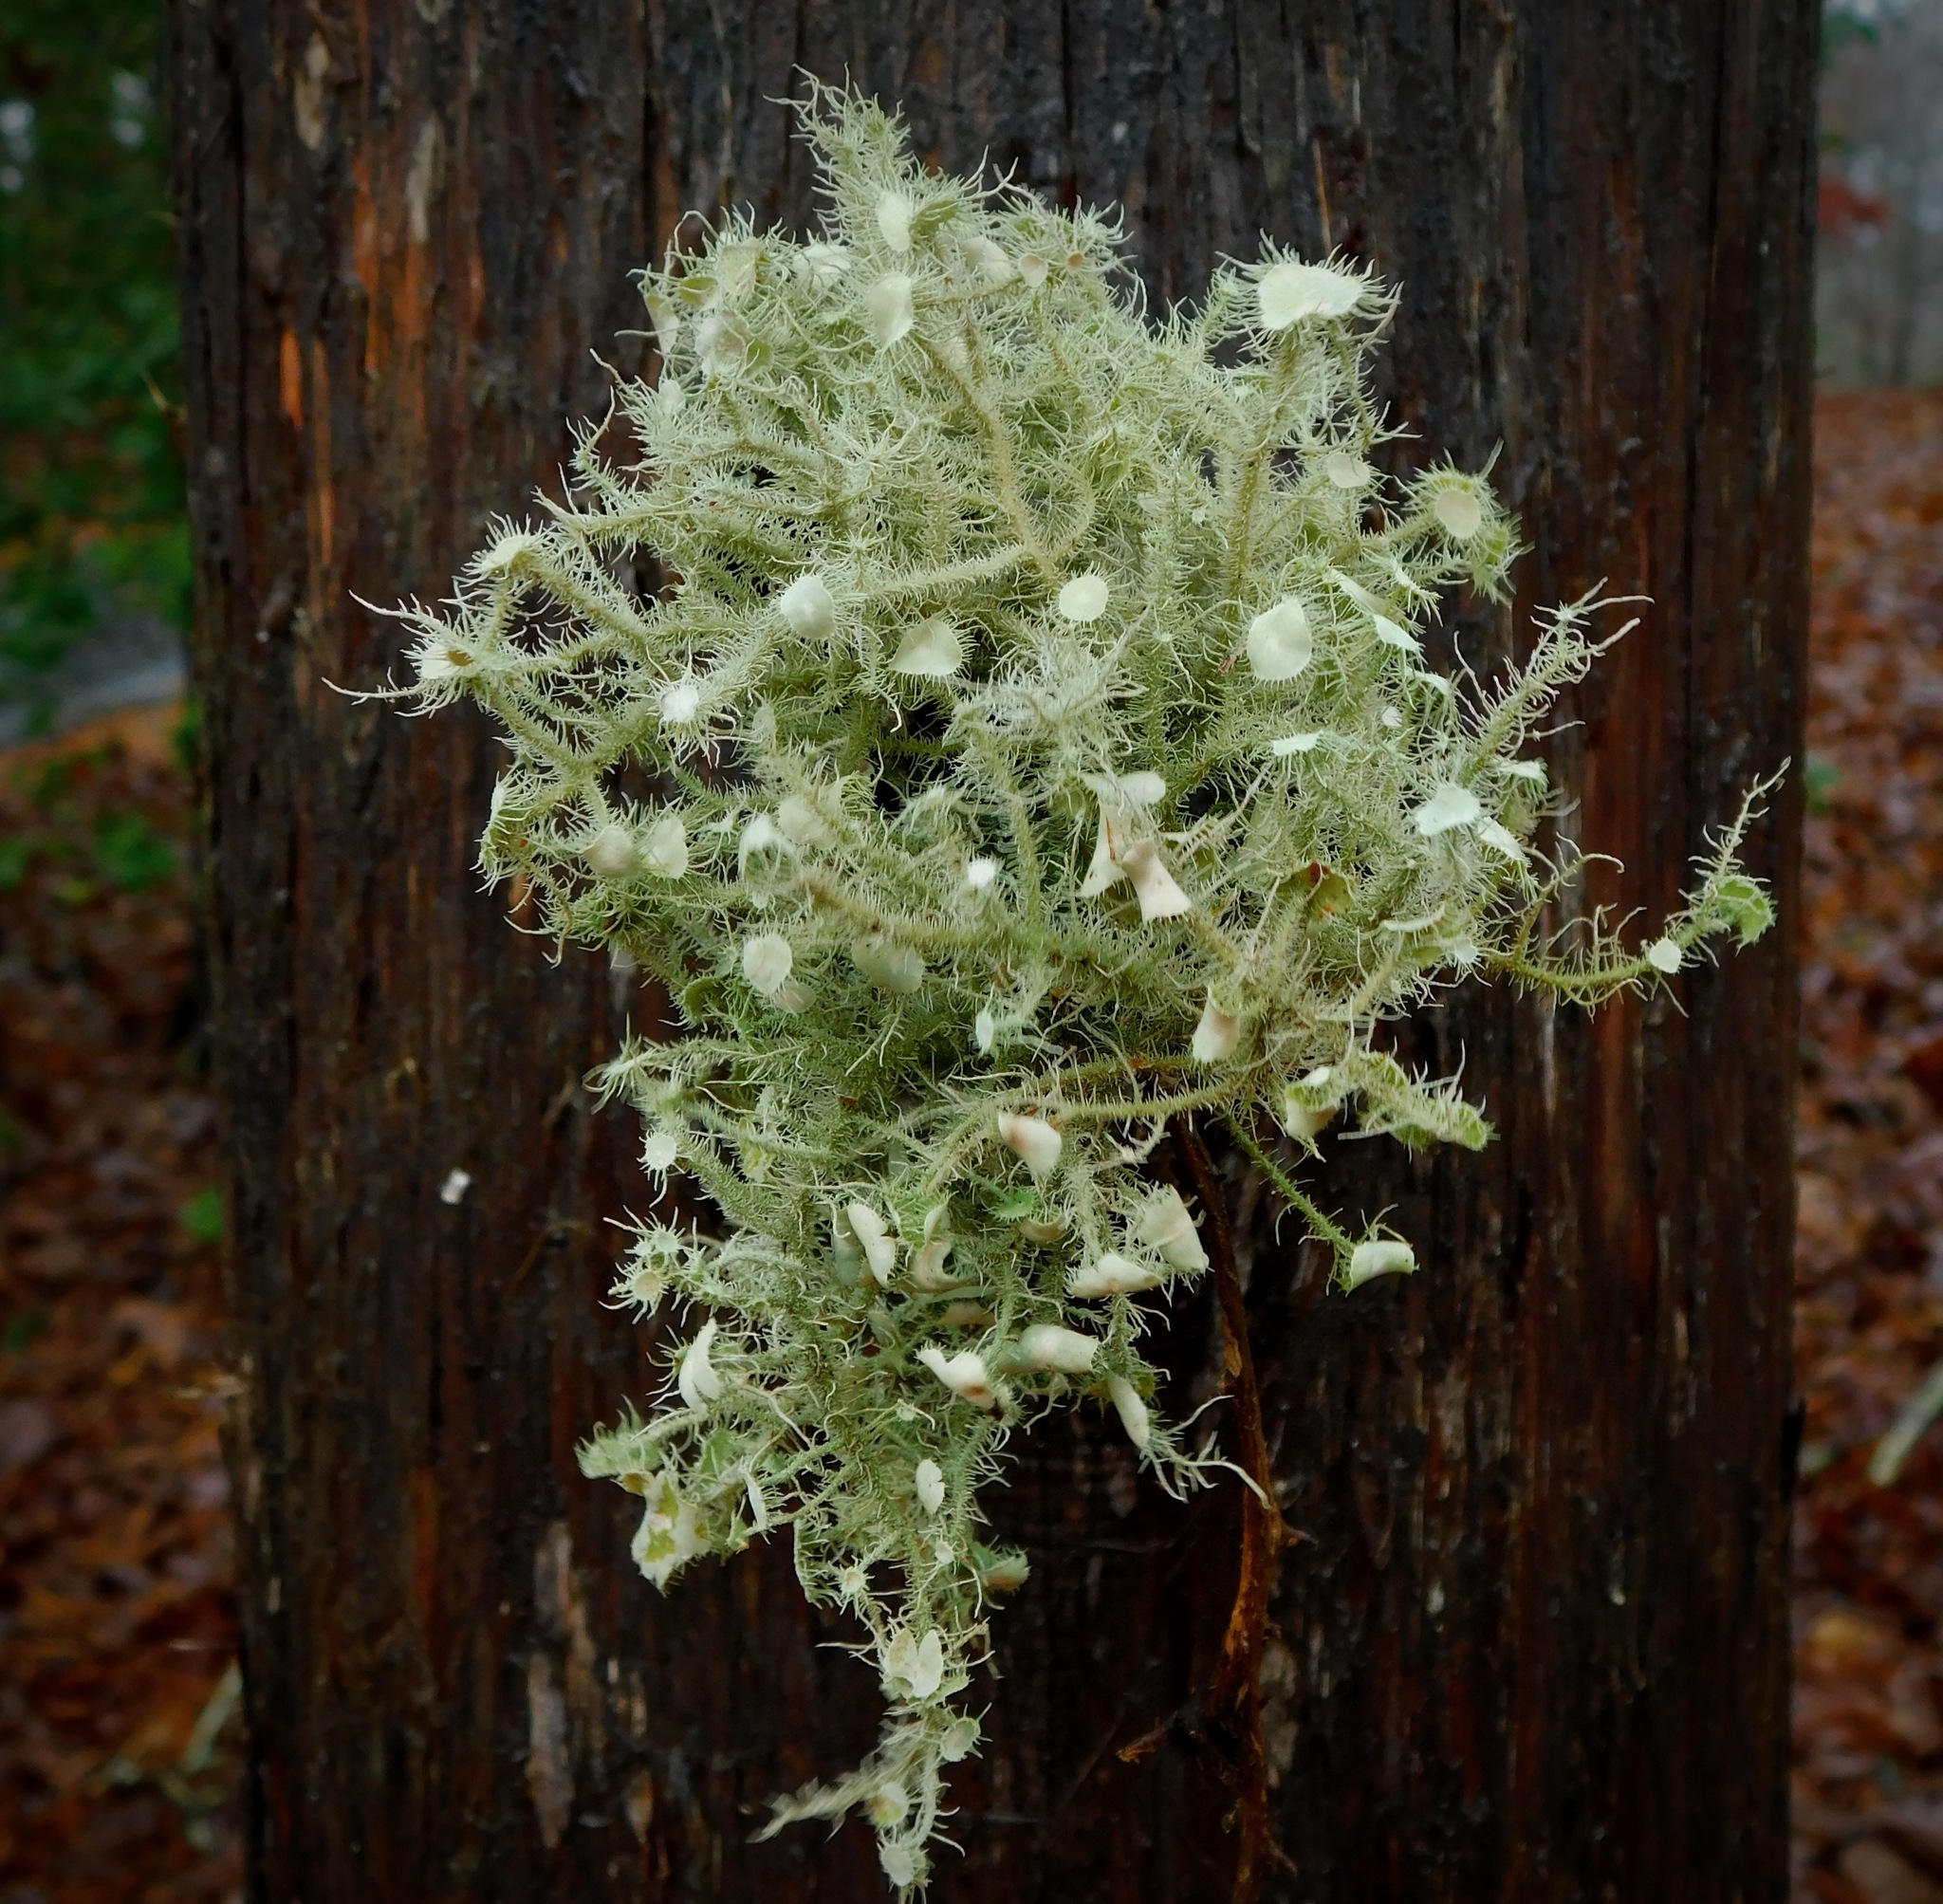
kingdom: Fungi
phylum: Ascomycota
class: Lecanoromycetes
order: Lecanorales
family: Parmeliaceae
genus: Usnea
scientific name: Usnea strigosa
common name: Bushy beard lichen
